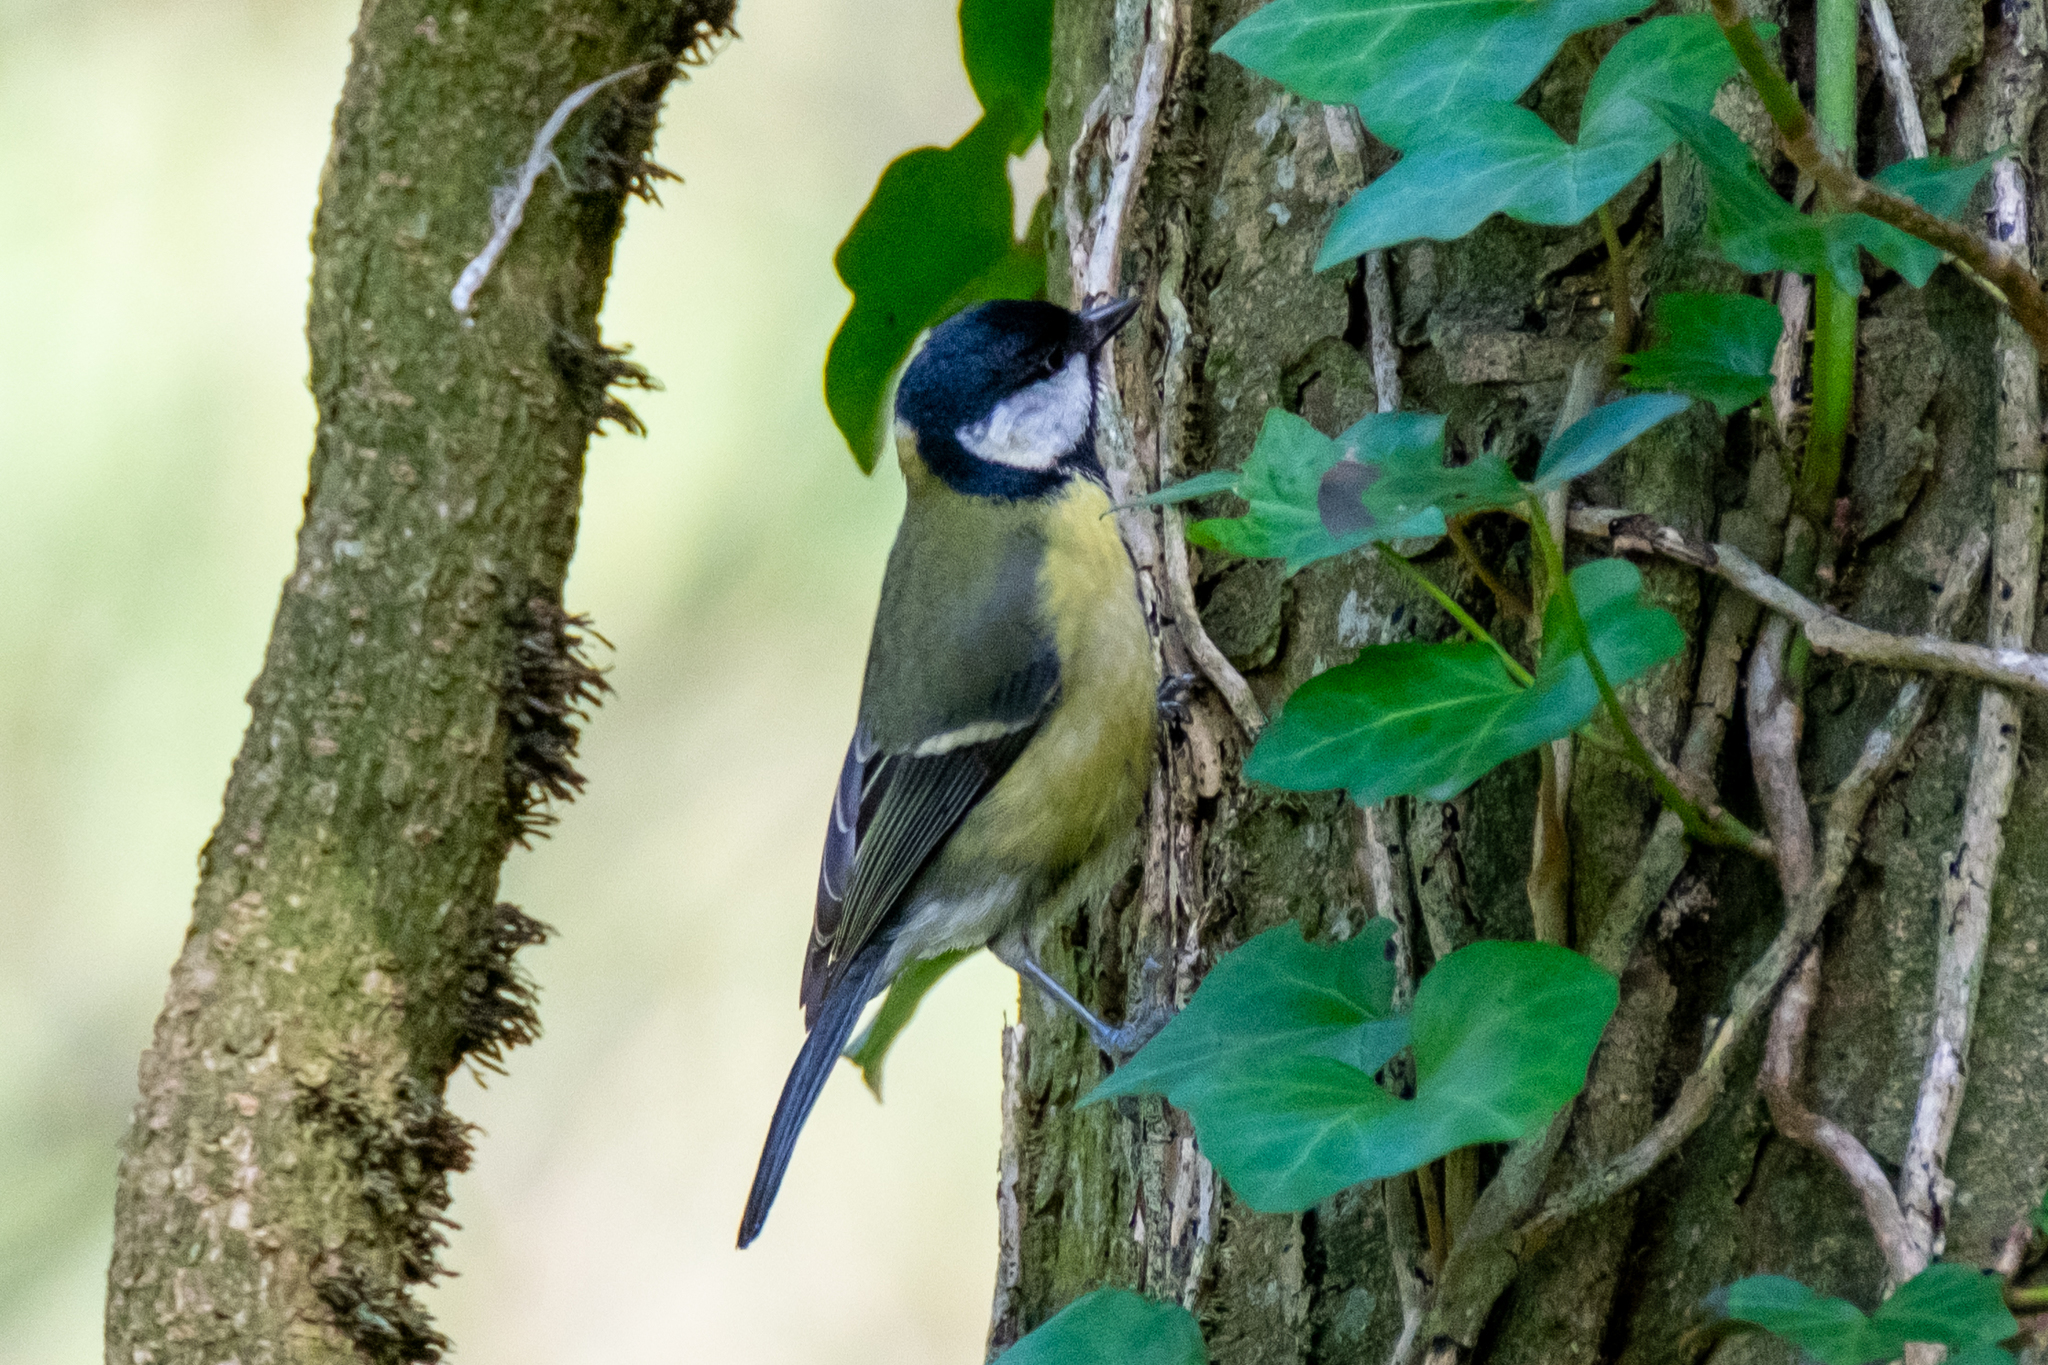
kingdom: Animalia
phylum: Chordata
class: Aves
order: Passeriformes
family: Paridae
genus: Parus
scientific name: Parus major
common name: Great tit
